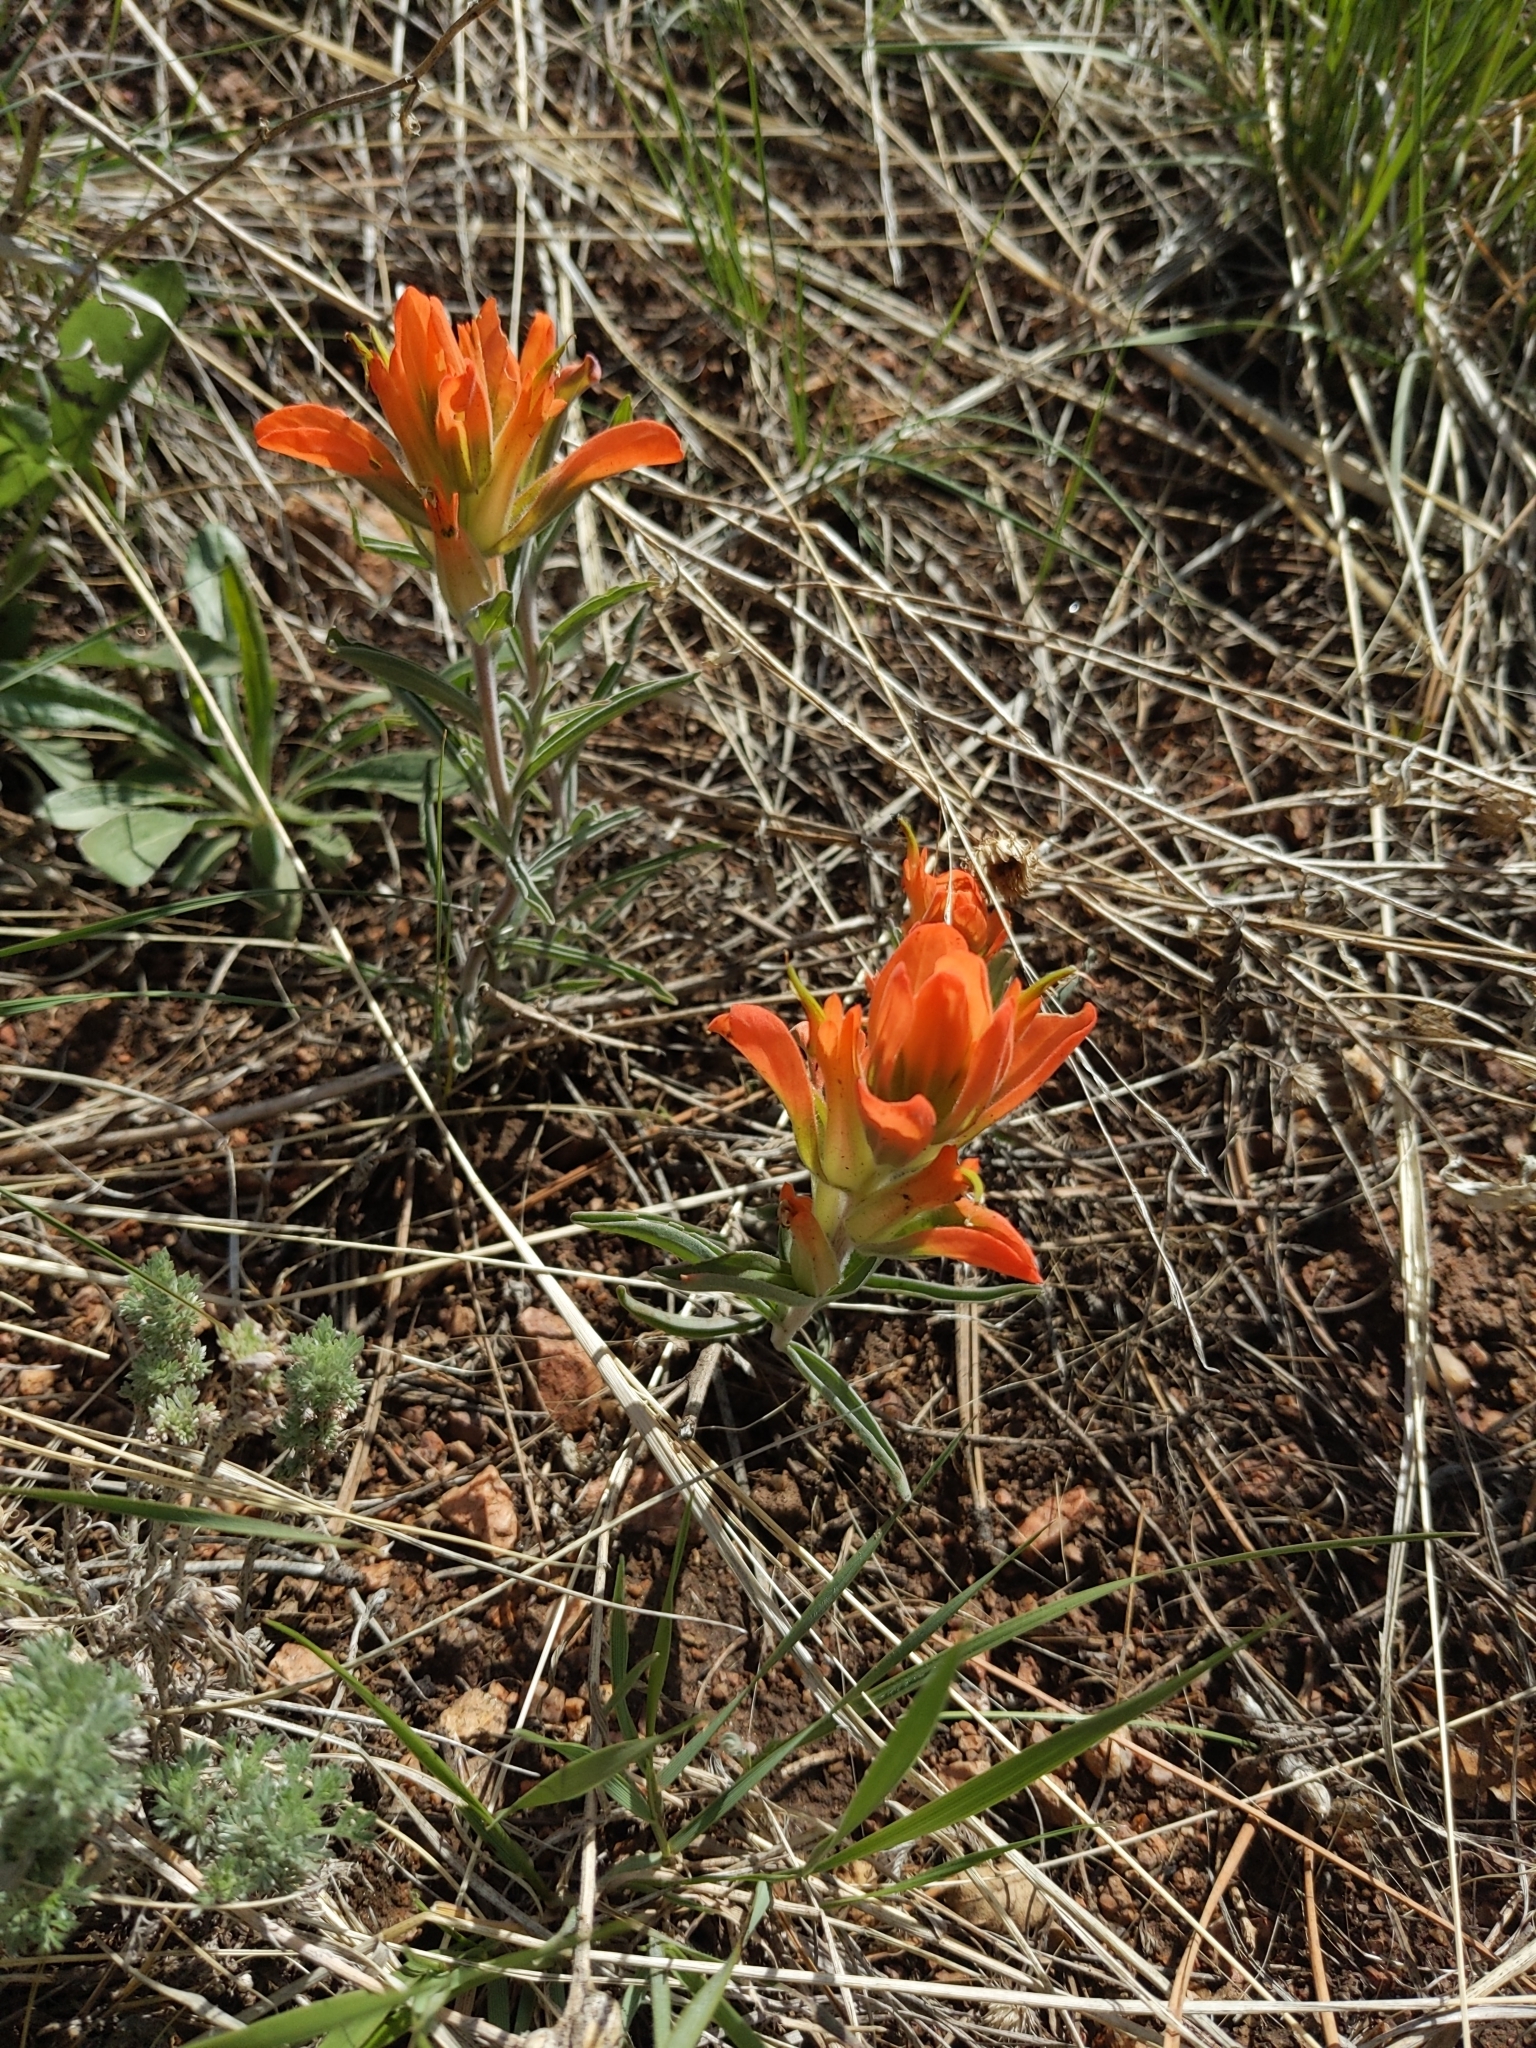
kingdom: Plantae
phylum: Tracheophyta
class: Magnoliopsida
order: Lamiales
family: Orobanchaceae
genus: Castilleja
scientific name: Castilleja integra
